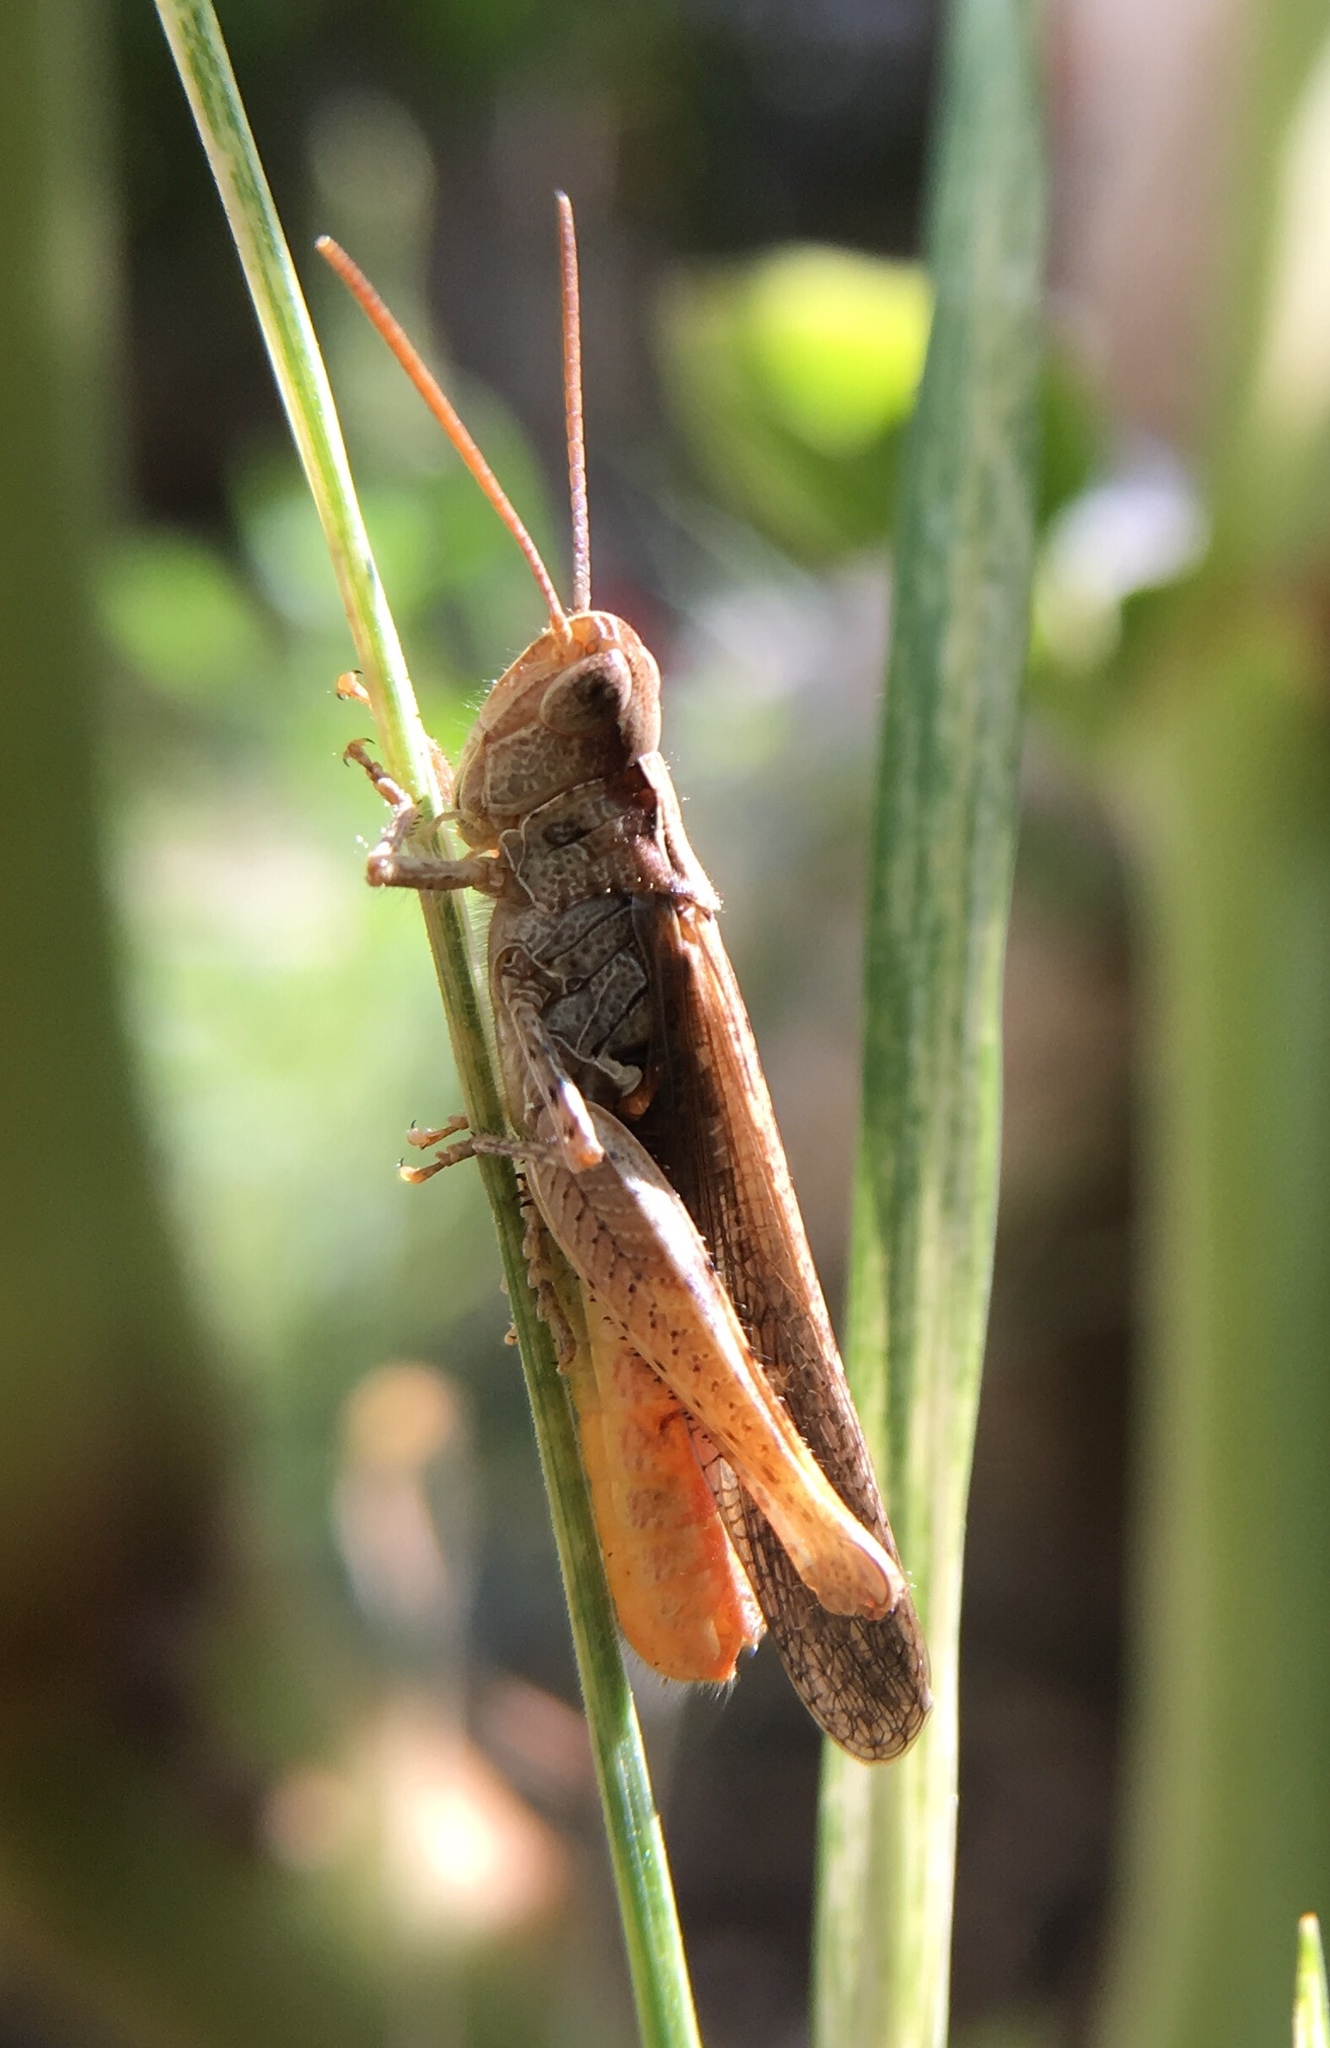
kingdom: Animalia
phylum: Arthropoda
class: Insecta
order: Orthoptera
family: Acrididae
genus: Chorthippus
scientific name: Chorthippus maritimus
